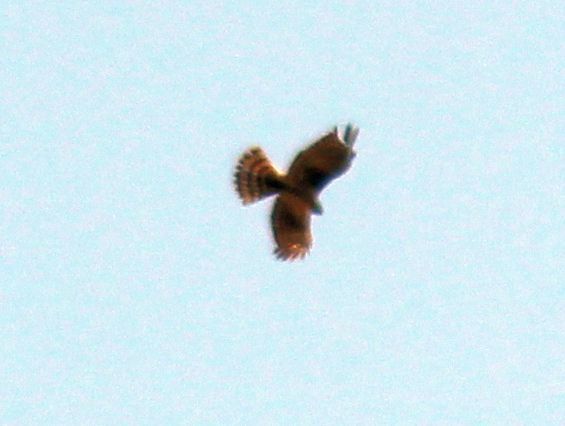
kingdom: Animalia
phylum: Chordata
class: Aves
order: Accipitriformes
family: Accipitridae
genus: Accipiter
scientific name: Accipiter nisus
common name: Eurasian sparrowhawk
